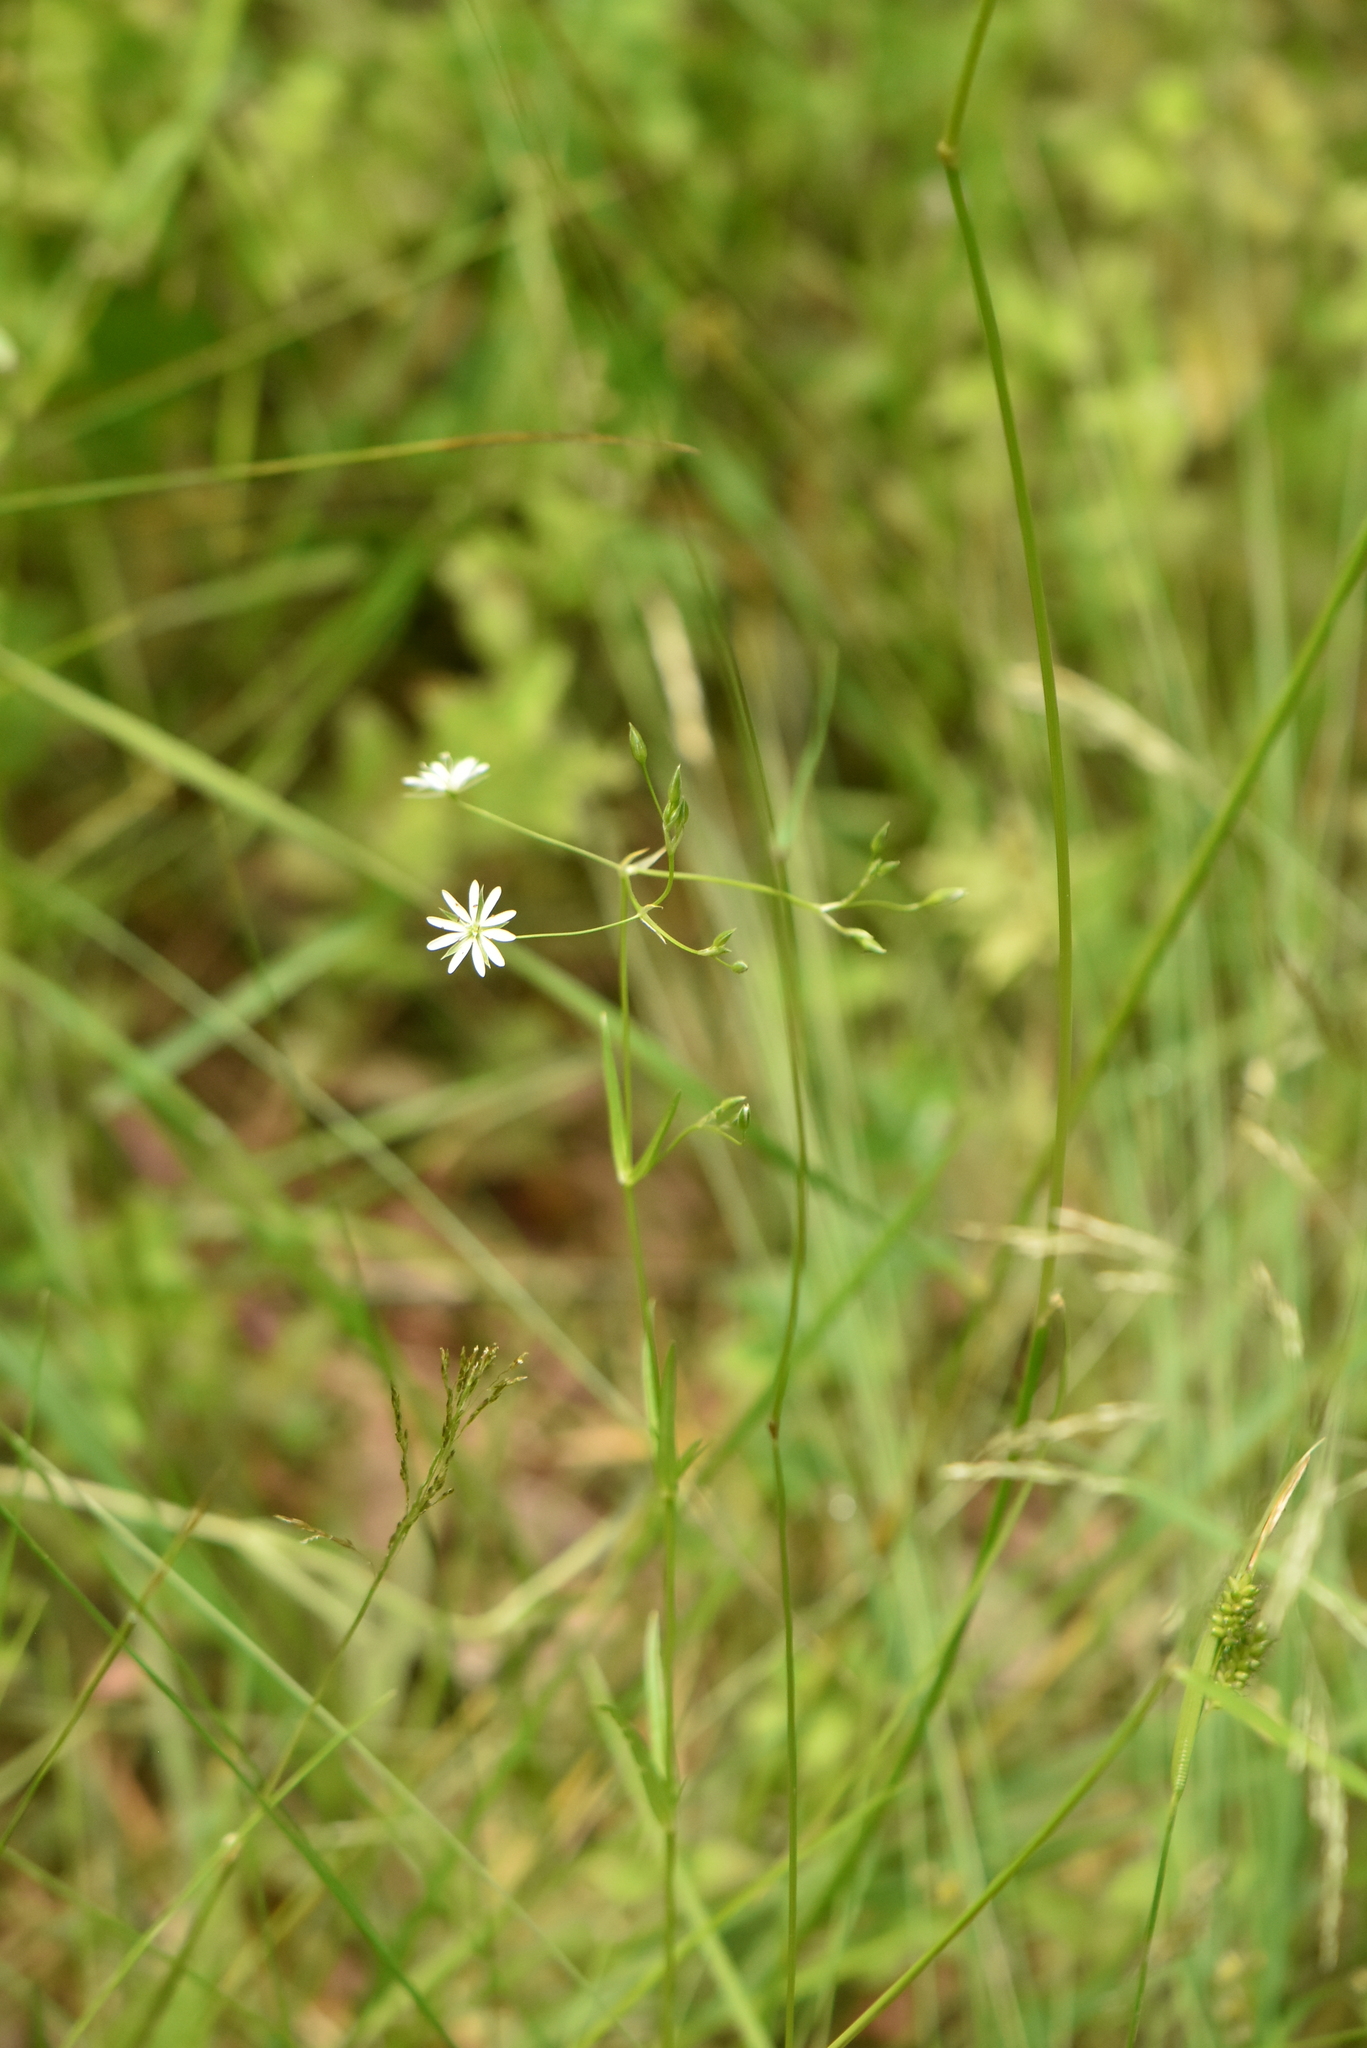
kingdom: Plantae
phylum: Tracheophyta
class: Magnoliopsida
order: Caryophyllales
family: Caryophyllaceae
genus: Stellaria
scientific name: Stellaria graminea
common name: Grass-like starwort
